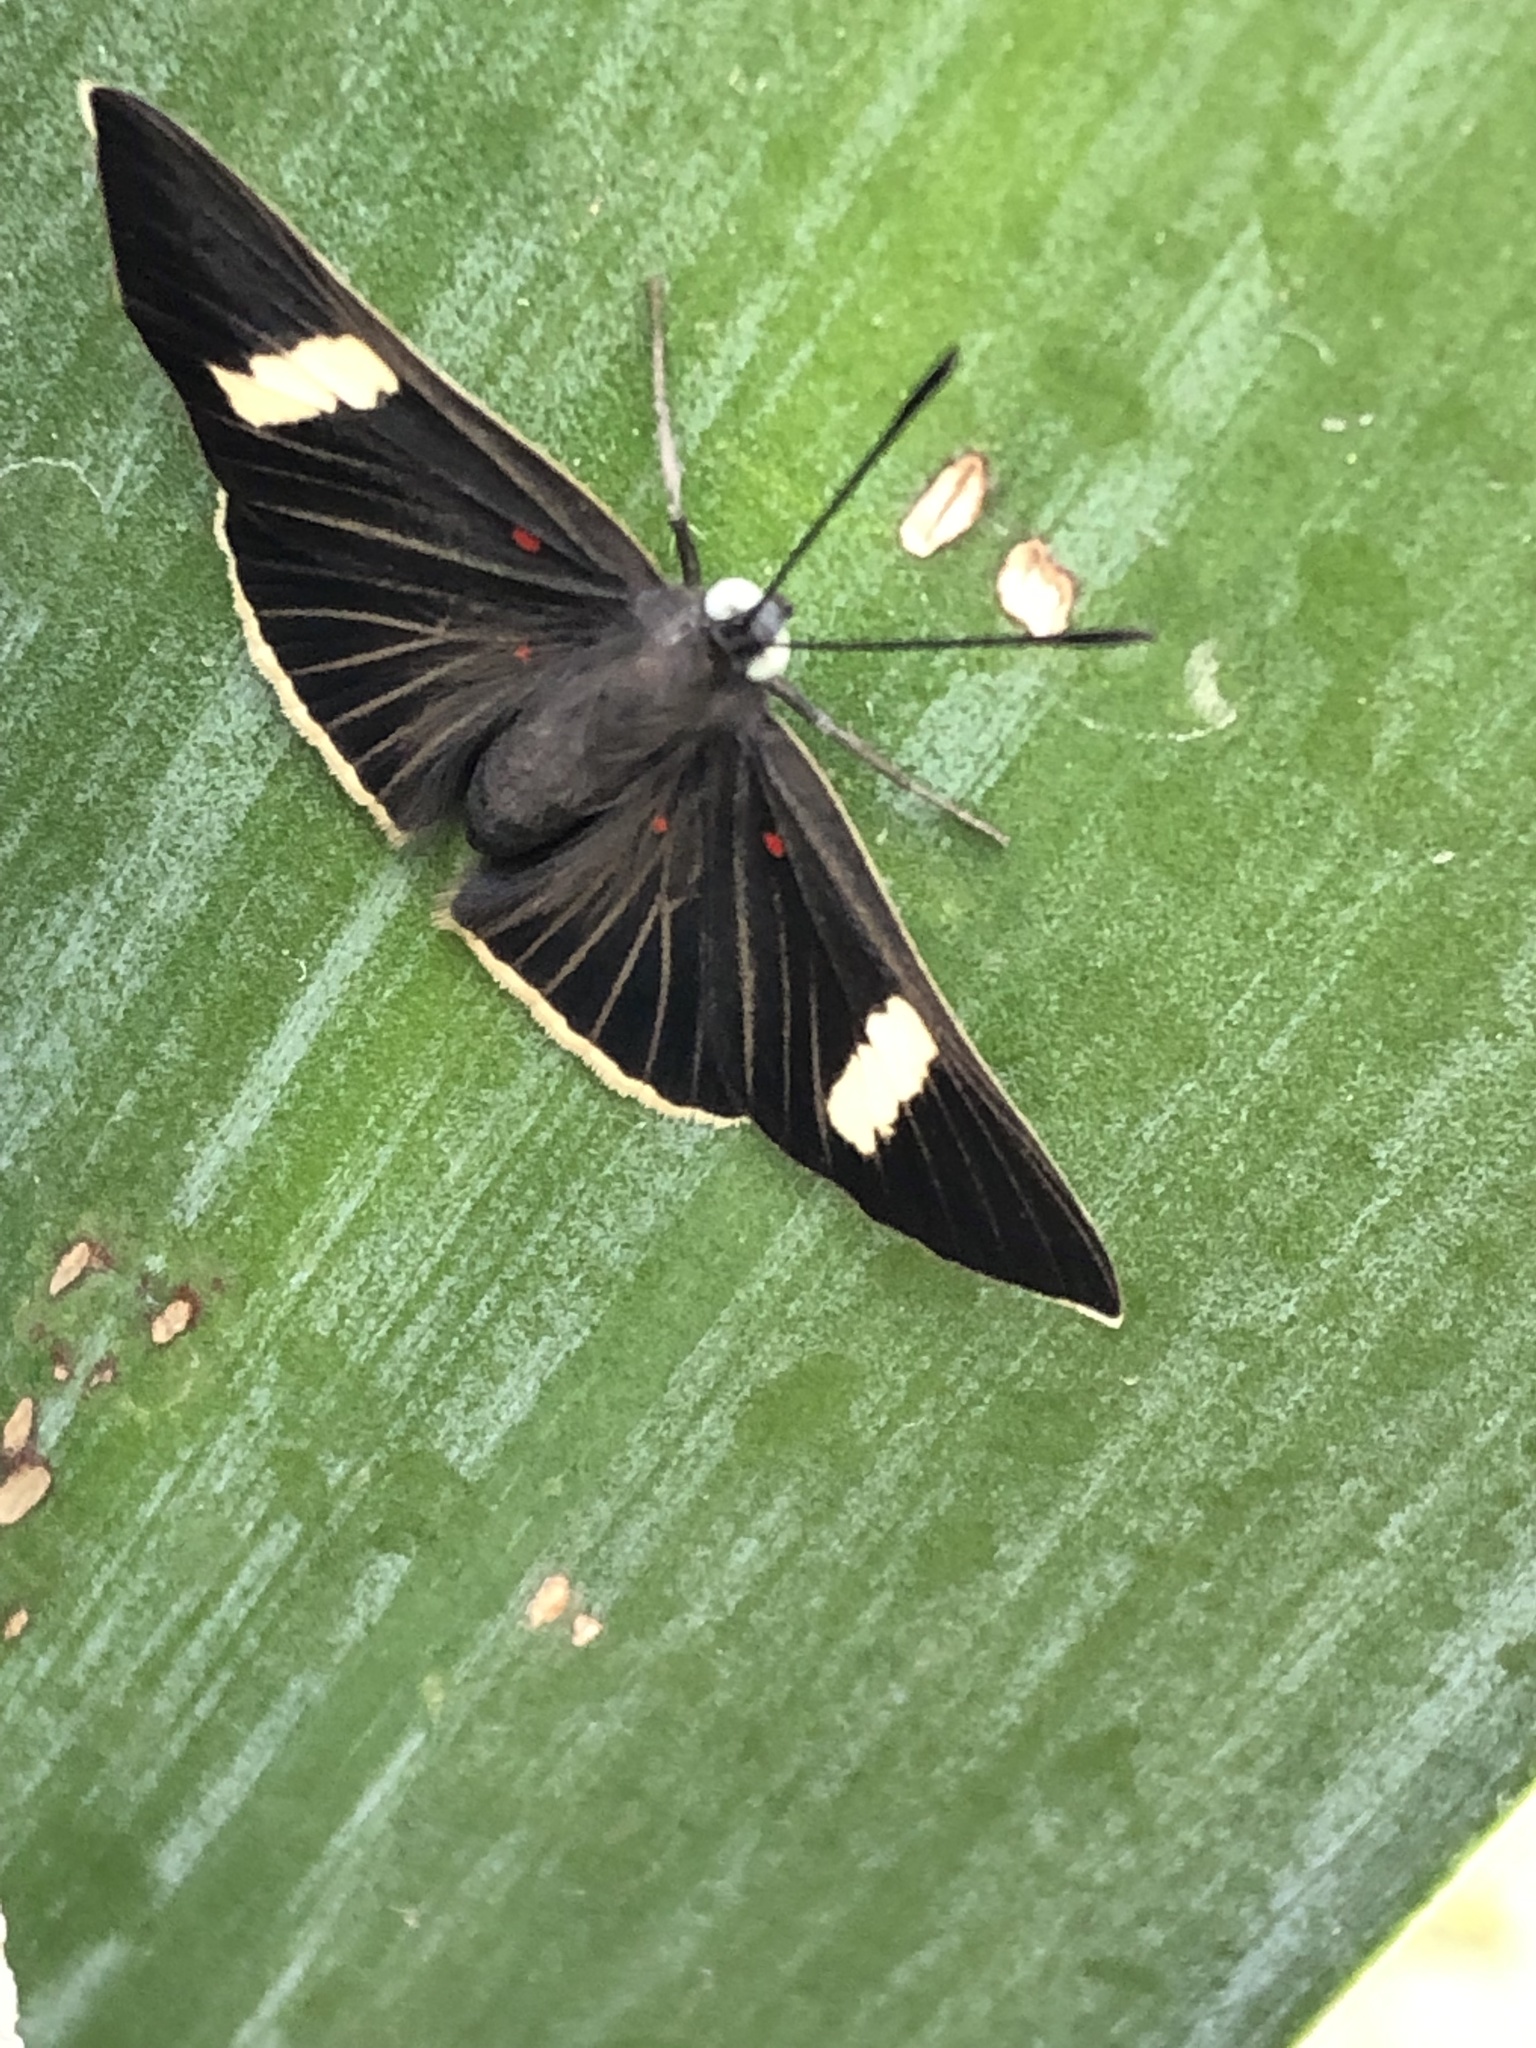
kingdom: Animalia
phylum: Arthropoda
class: Insecta
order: Lepidoptera
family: Lycaenidae
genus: Melanis
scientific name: Melanis
